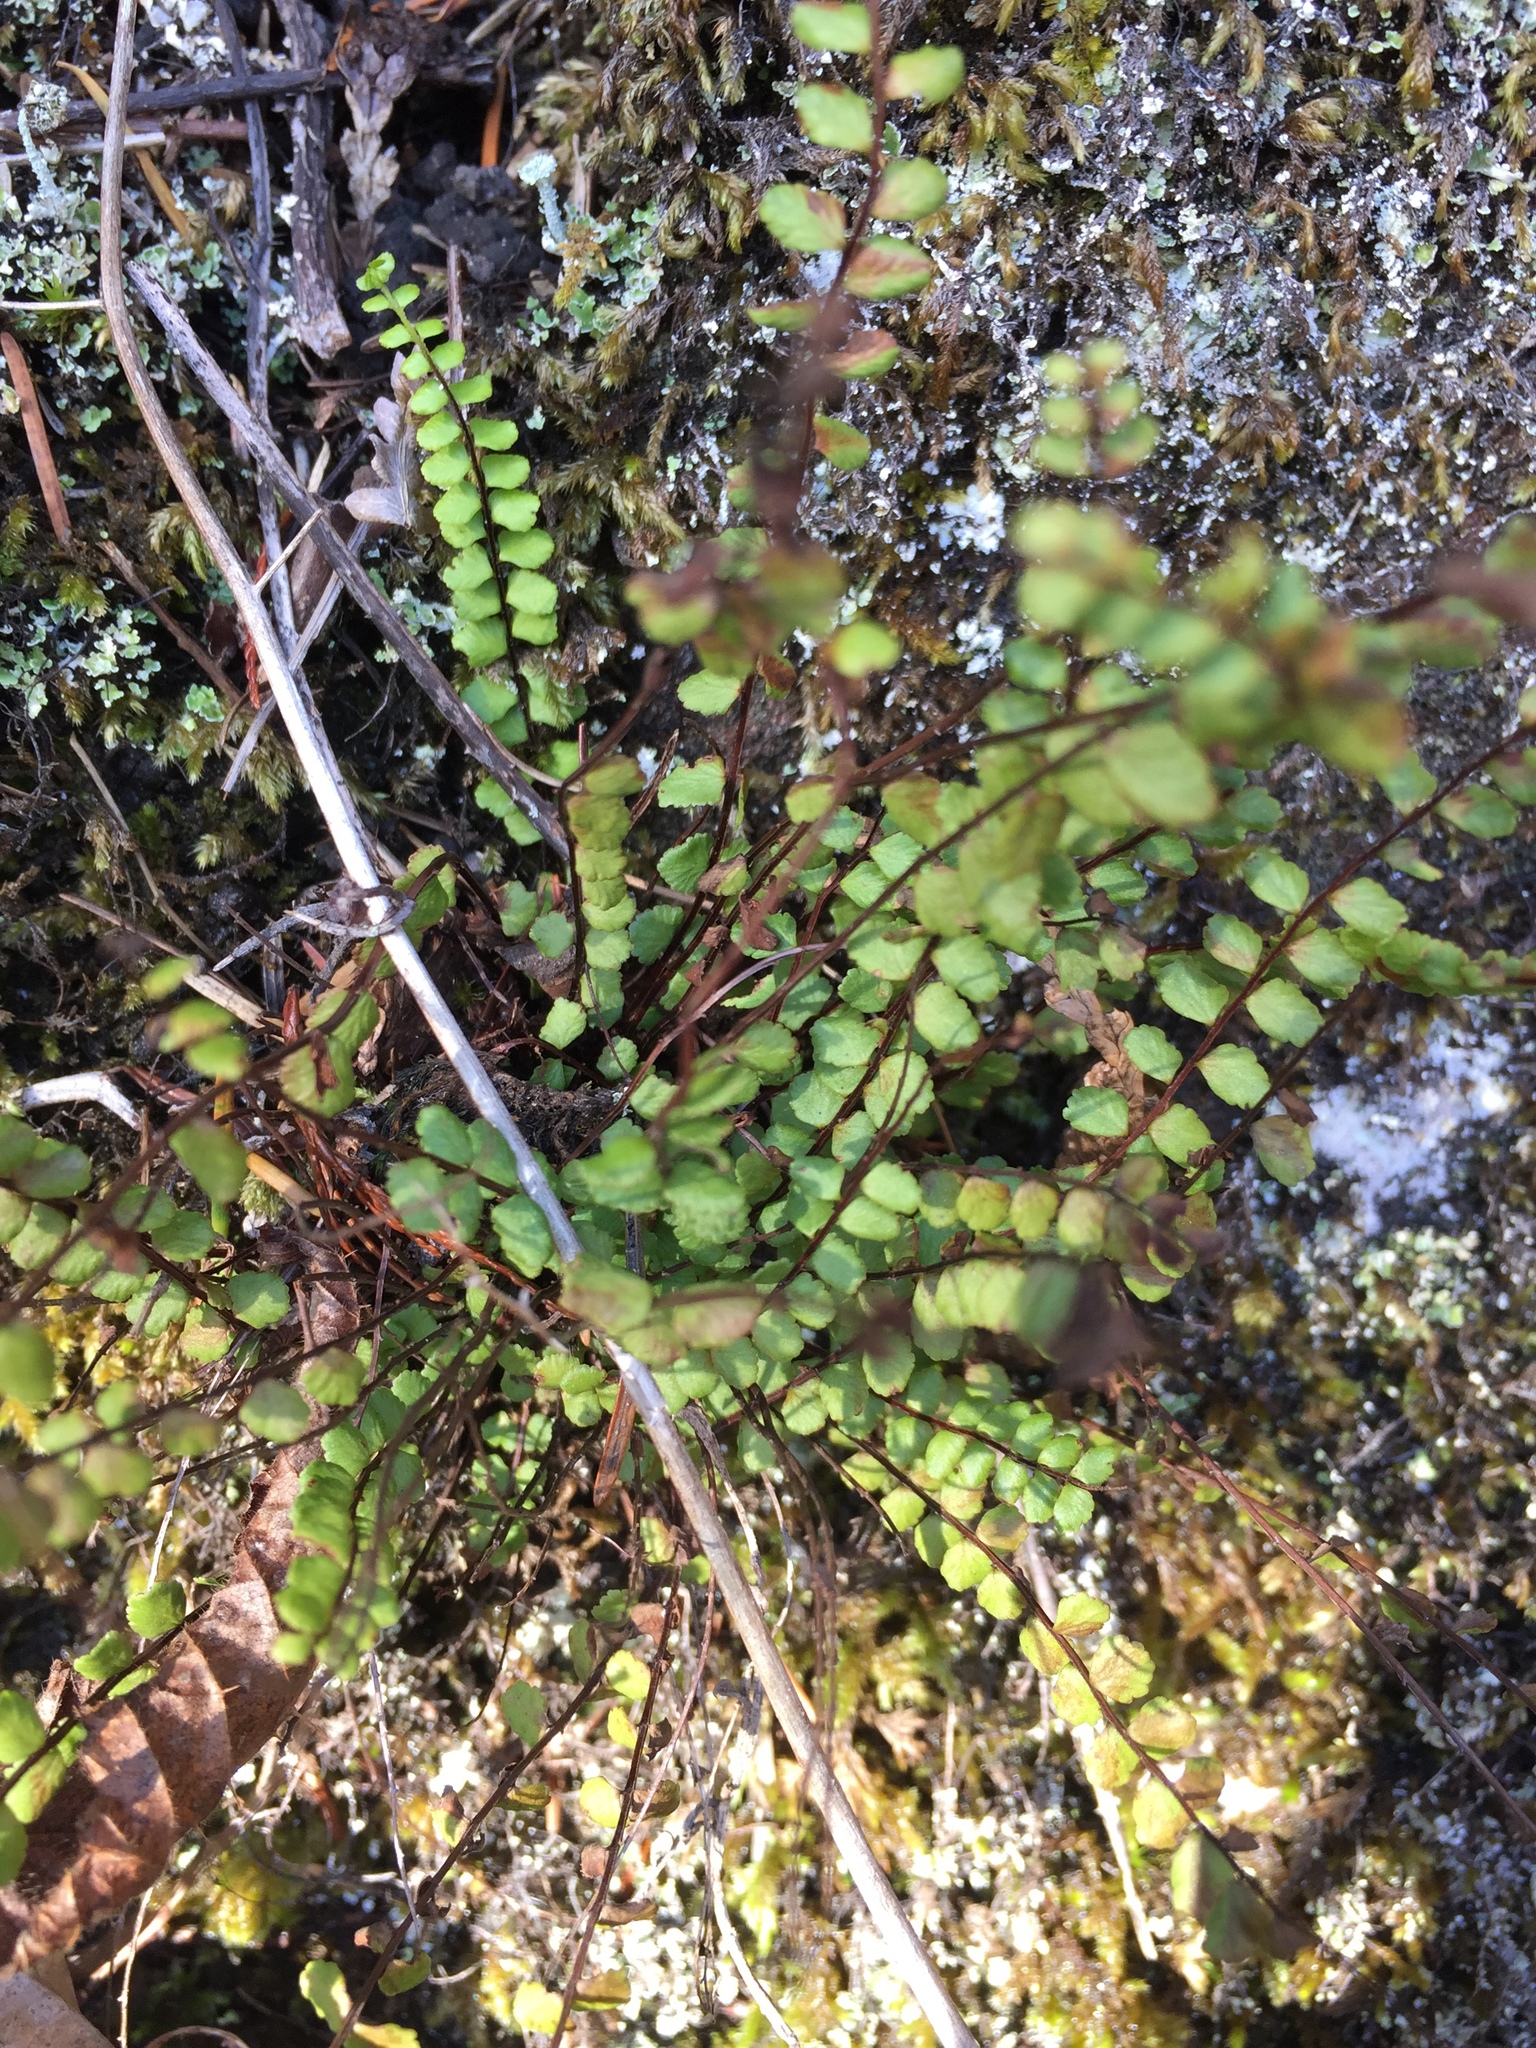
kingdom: Plantae
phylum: Tracheophyta
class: Polypodiopsida
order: Polypodiales
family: Aspleniaceae
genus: Asplenium
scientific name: Asplenium trichomanes
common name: Maidenhair spleenwort
